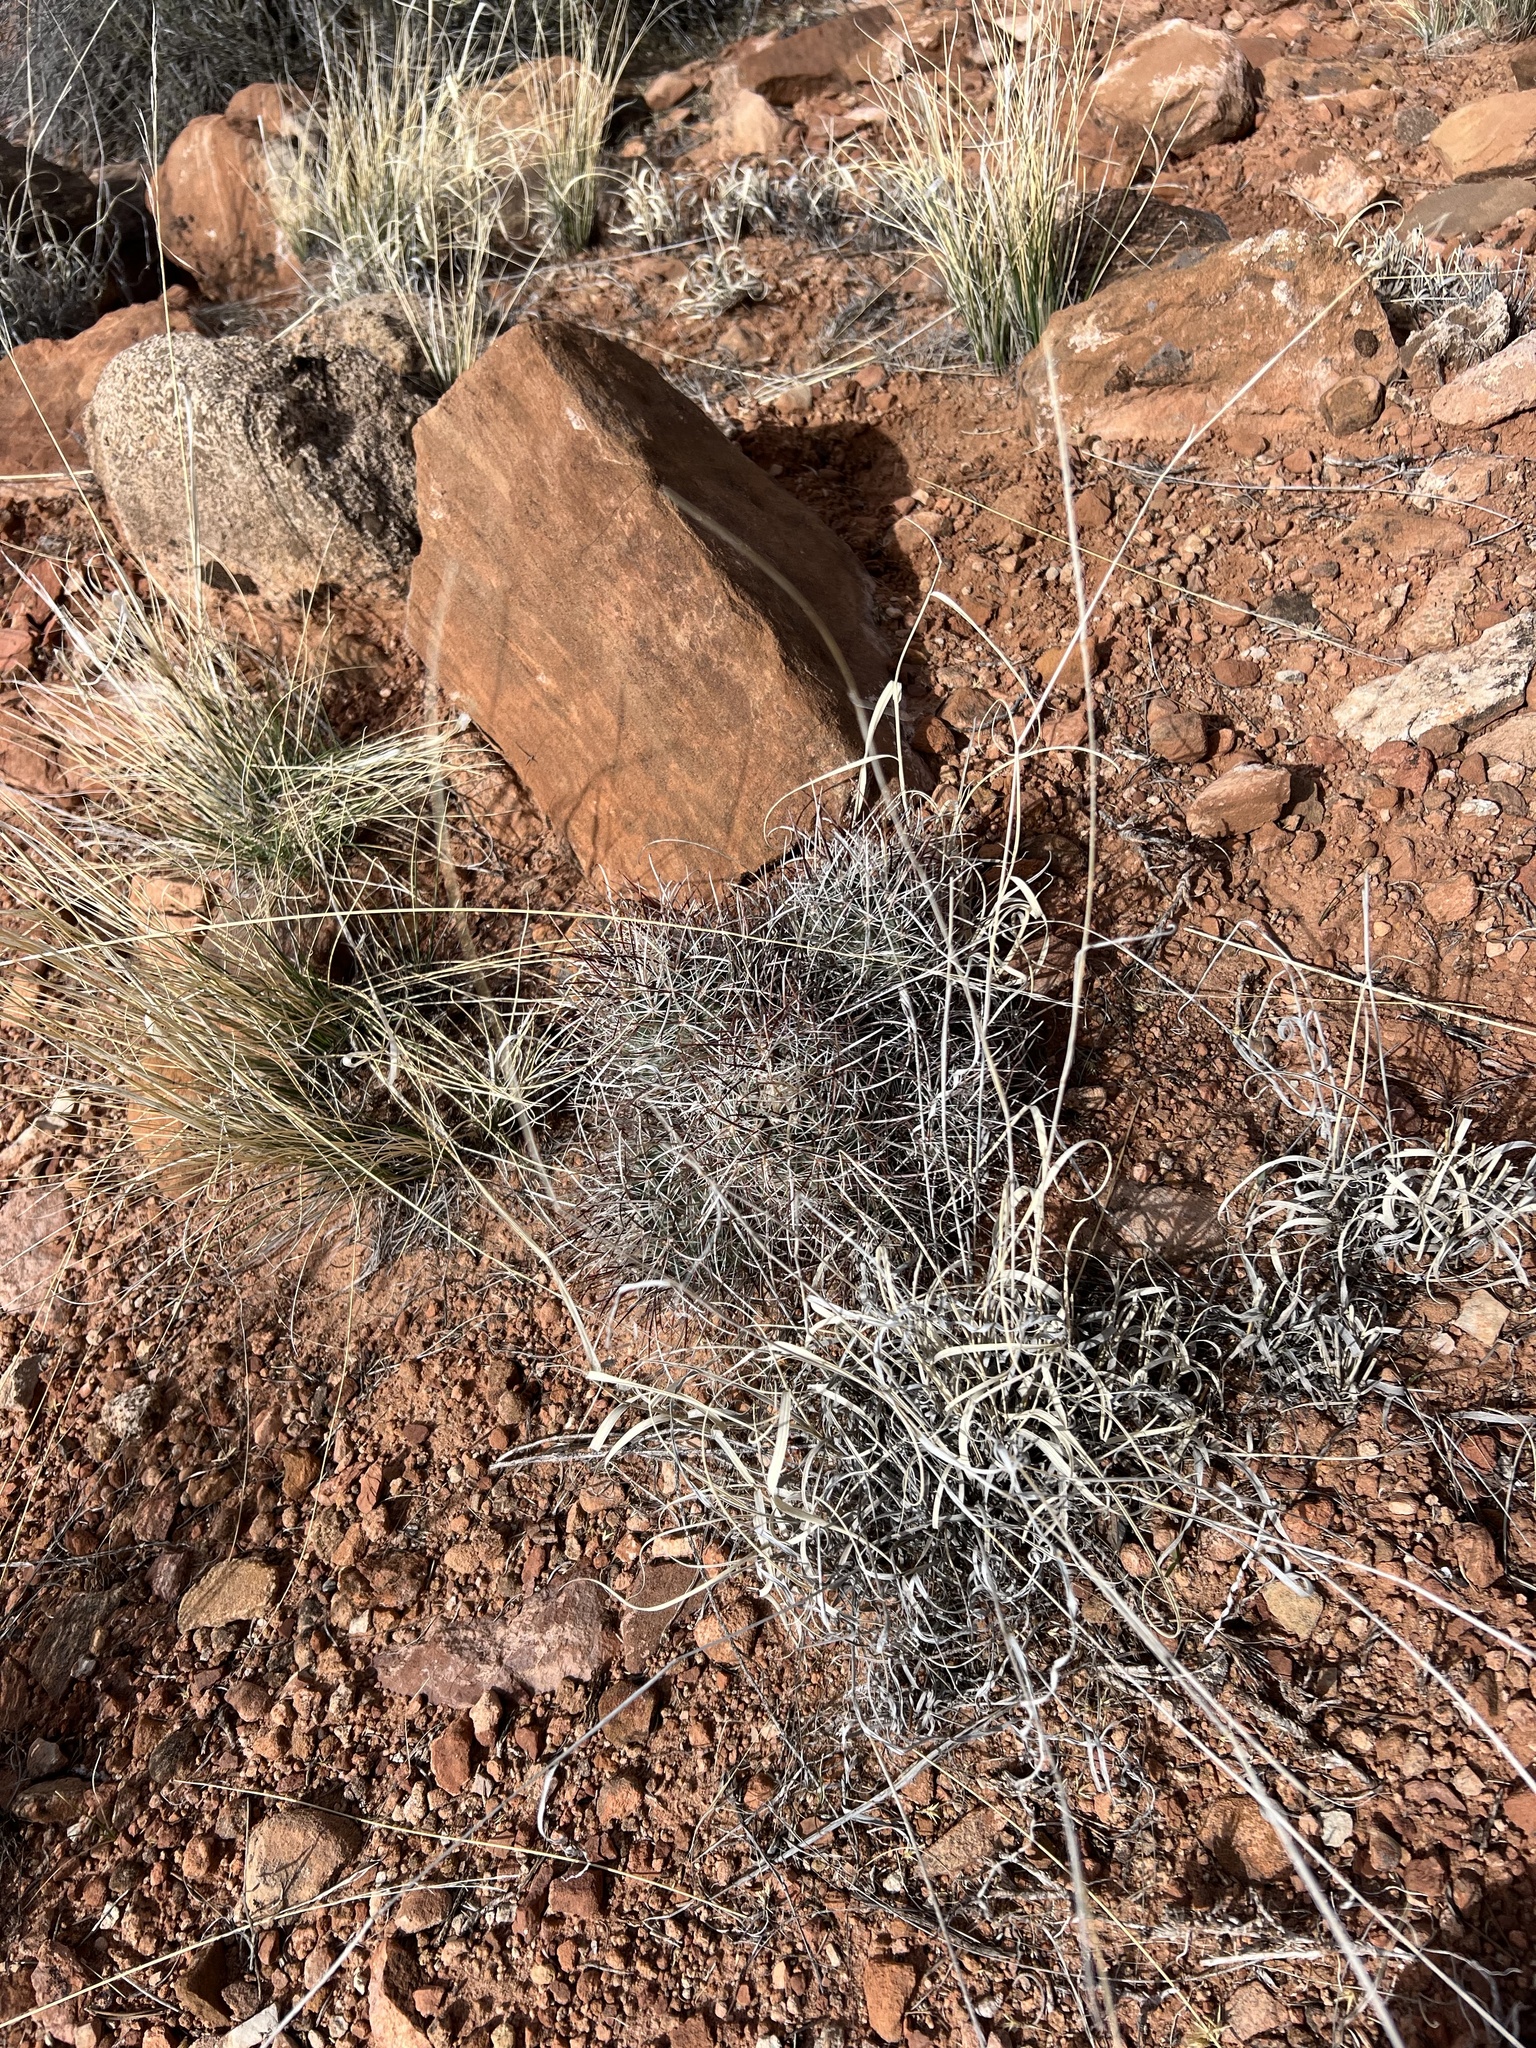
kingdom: Plantae
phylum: Tracheophyta
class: Magnoliopsida
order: Caryophyllales
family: Cactaceae
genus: Sclerocactus
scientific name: Sclerocactus parviflorus
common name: Small-flower fishhook cactus
